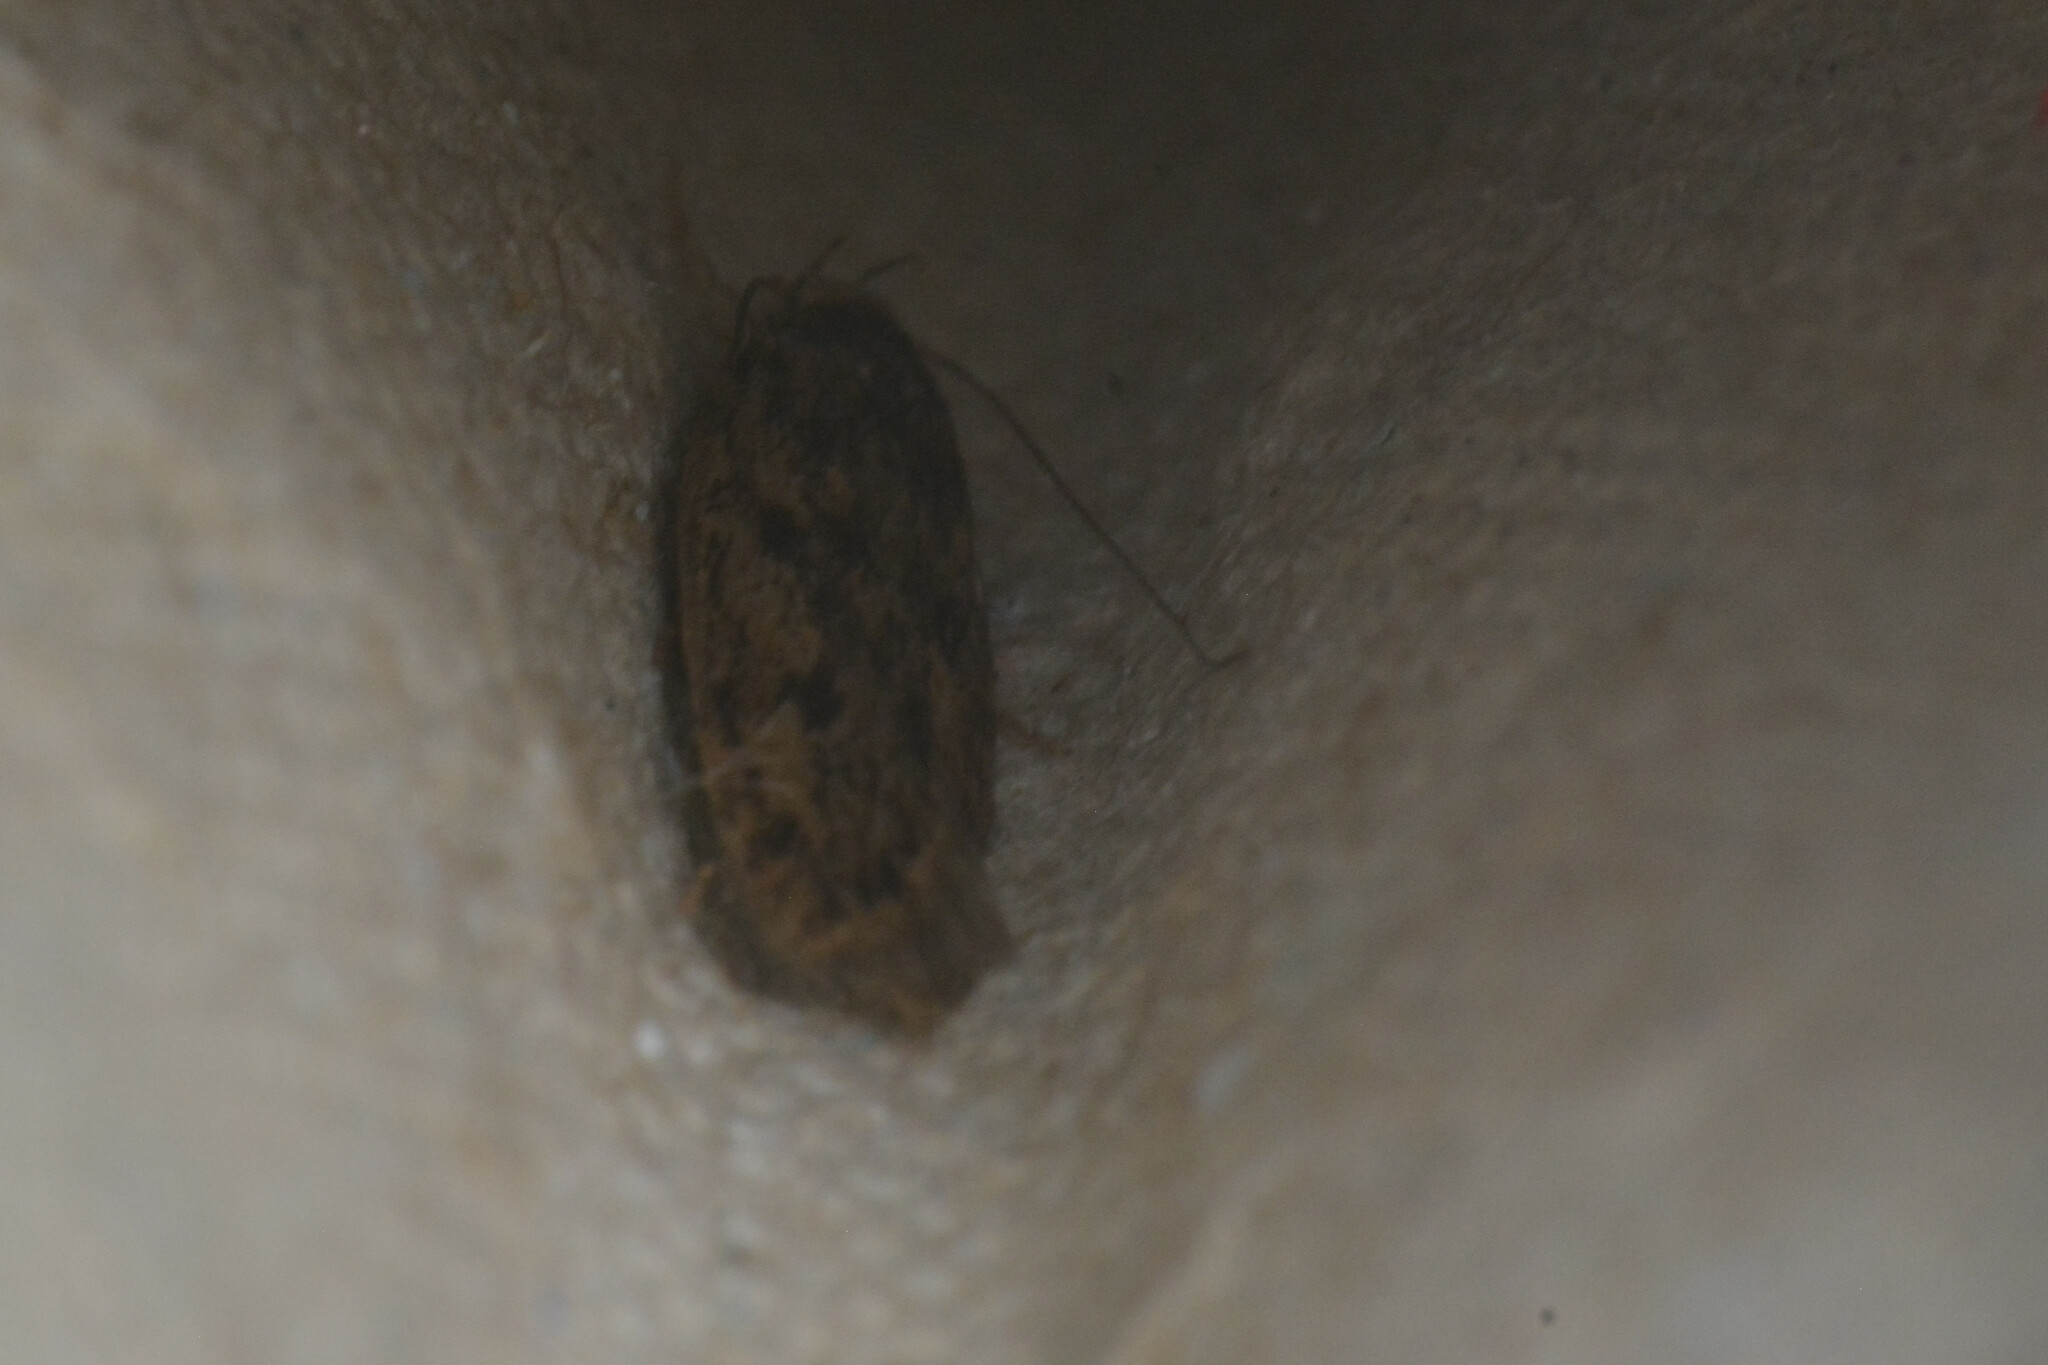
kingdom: Animalia
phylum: Arthropoda
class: Insecta
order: Lepidoptera
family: Oecophoridae
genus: Hofmannophila
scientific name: Hofmannophila pseudospretella
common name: Brown house moth
